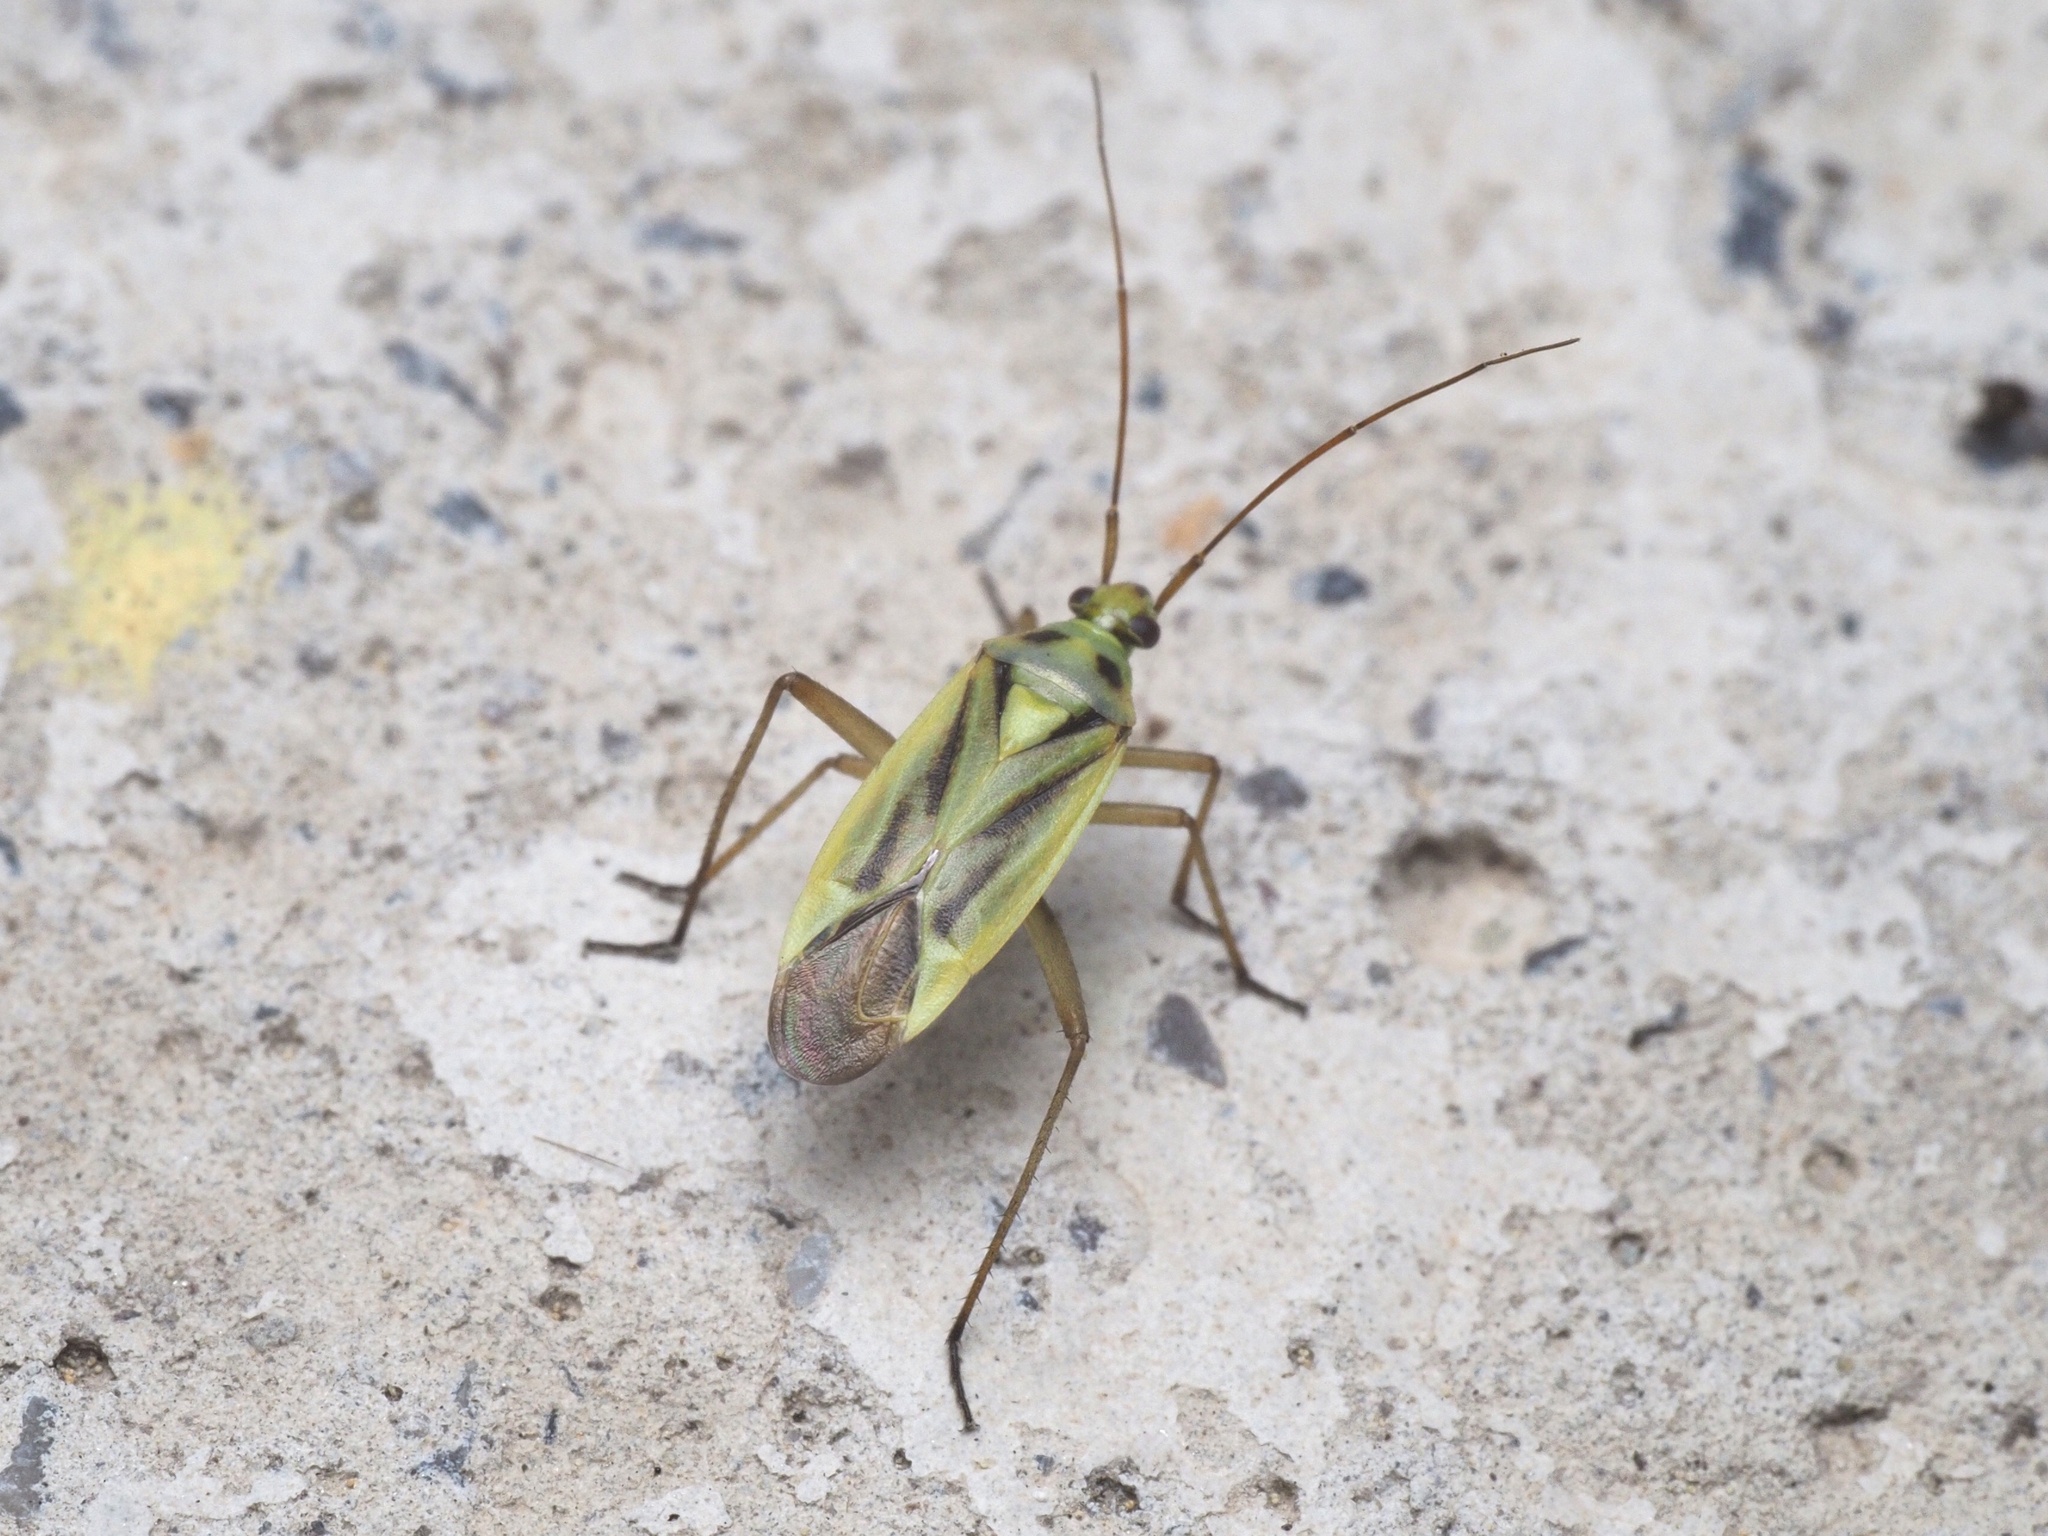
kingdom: Animalia
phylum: Arthropoda
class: Insecta
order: Hemiptera
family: Miridae
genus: Stenotus
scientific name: Stenotus binotatus
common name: Plant bug
